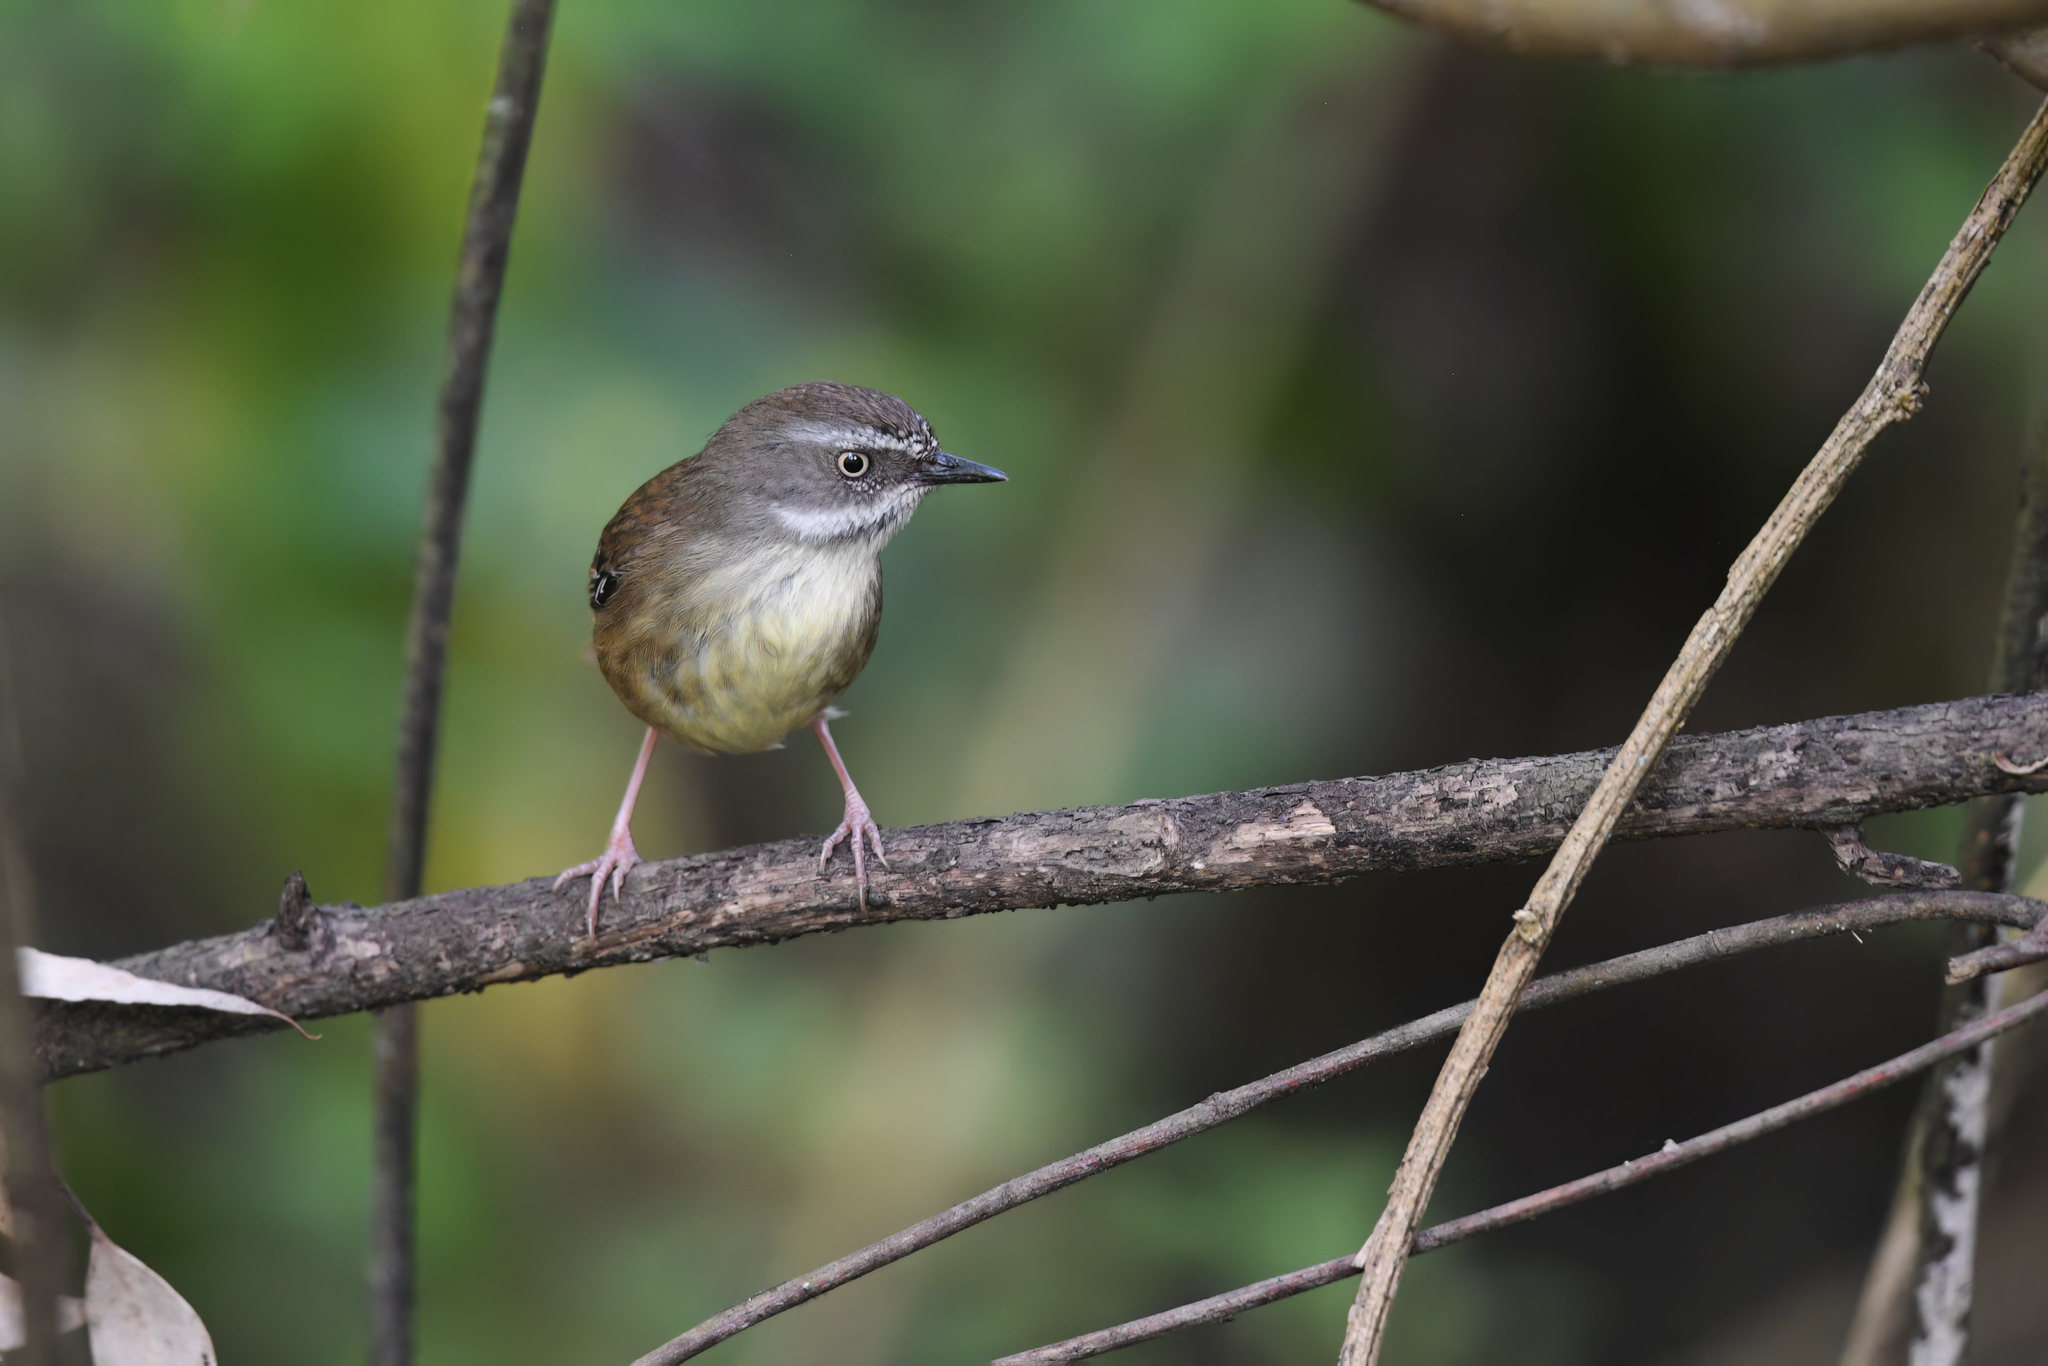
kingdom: Animalia
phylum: Chordata
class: Aves
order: Passeriformes
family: Acanthizidae
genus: Sericornis
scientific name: Sericornis frontalis
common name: White-browed scrubwren
